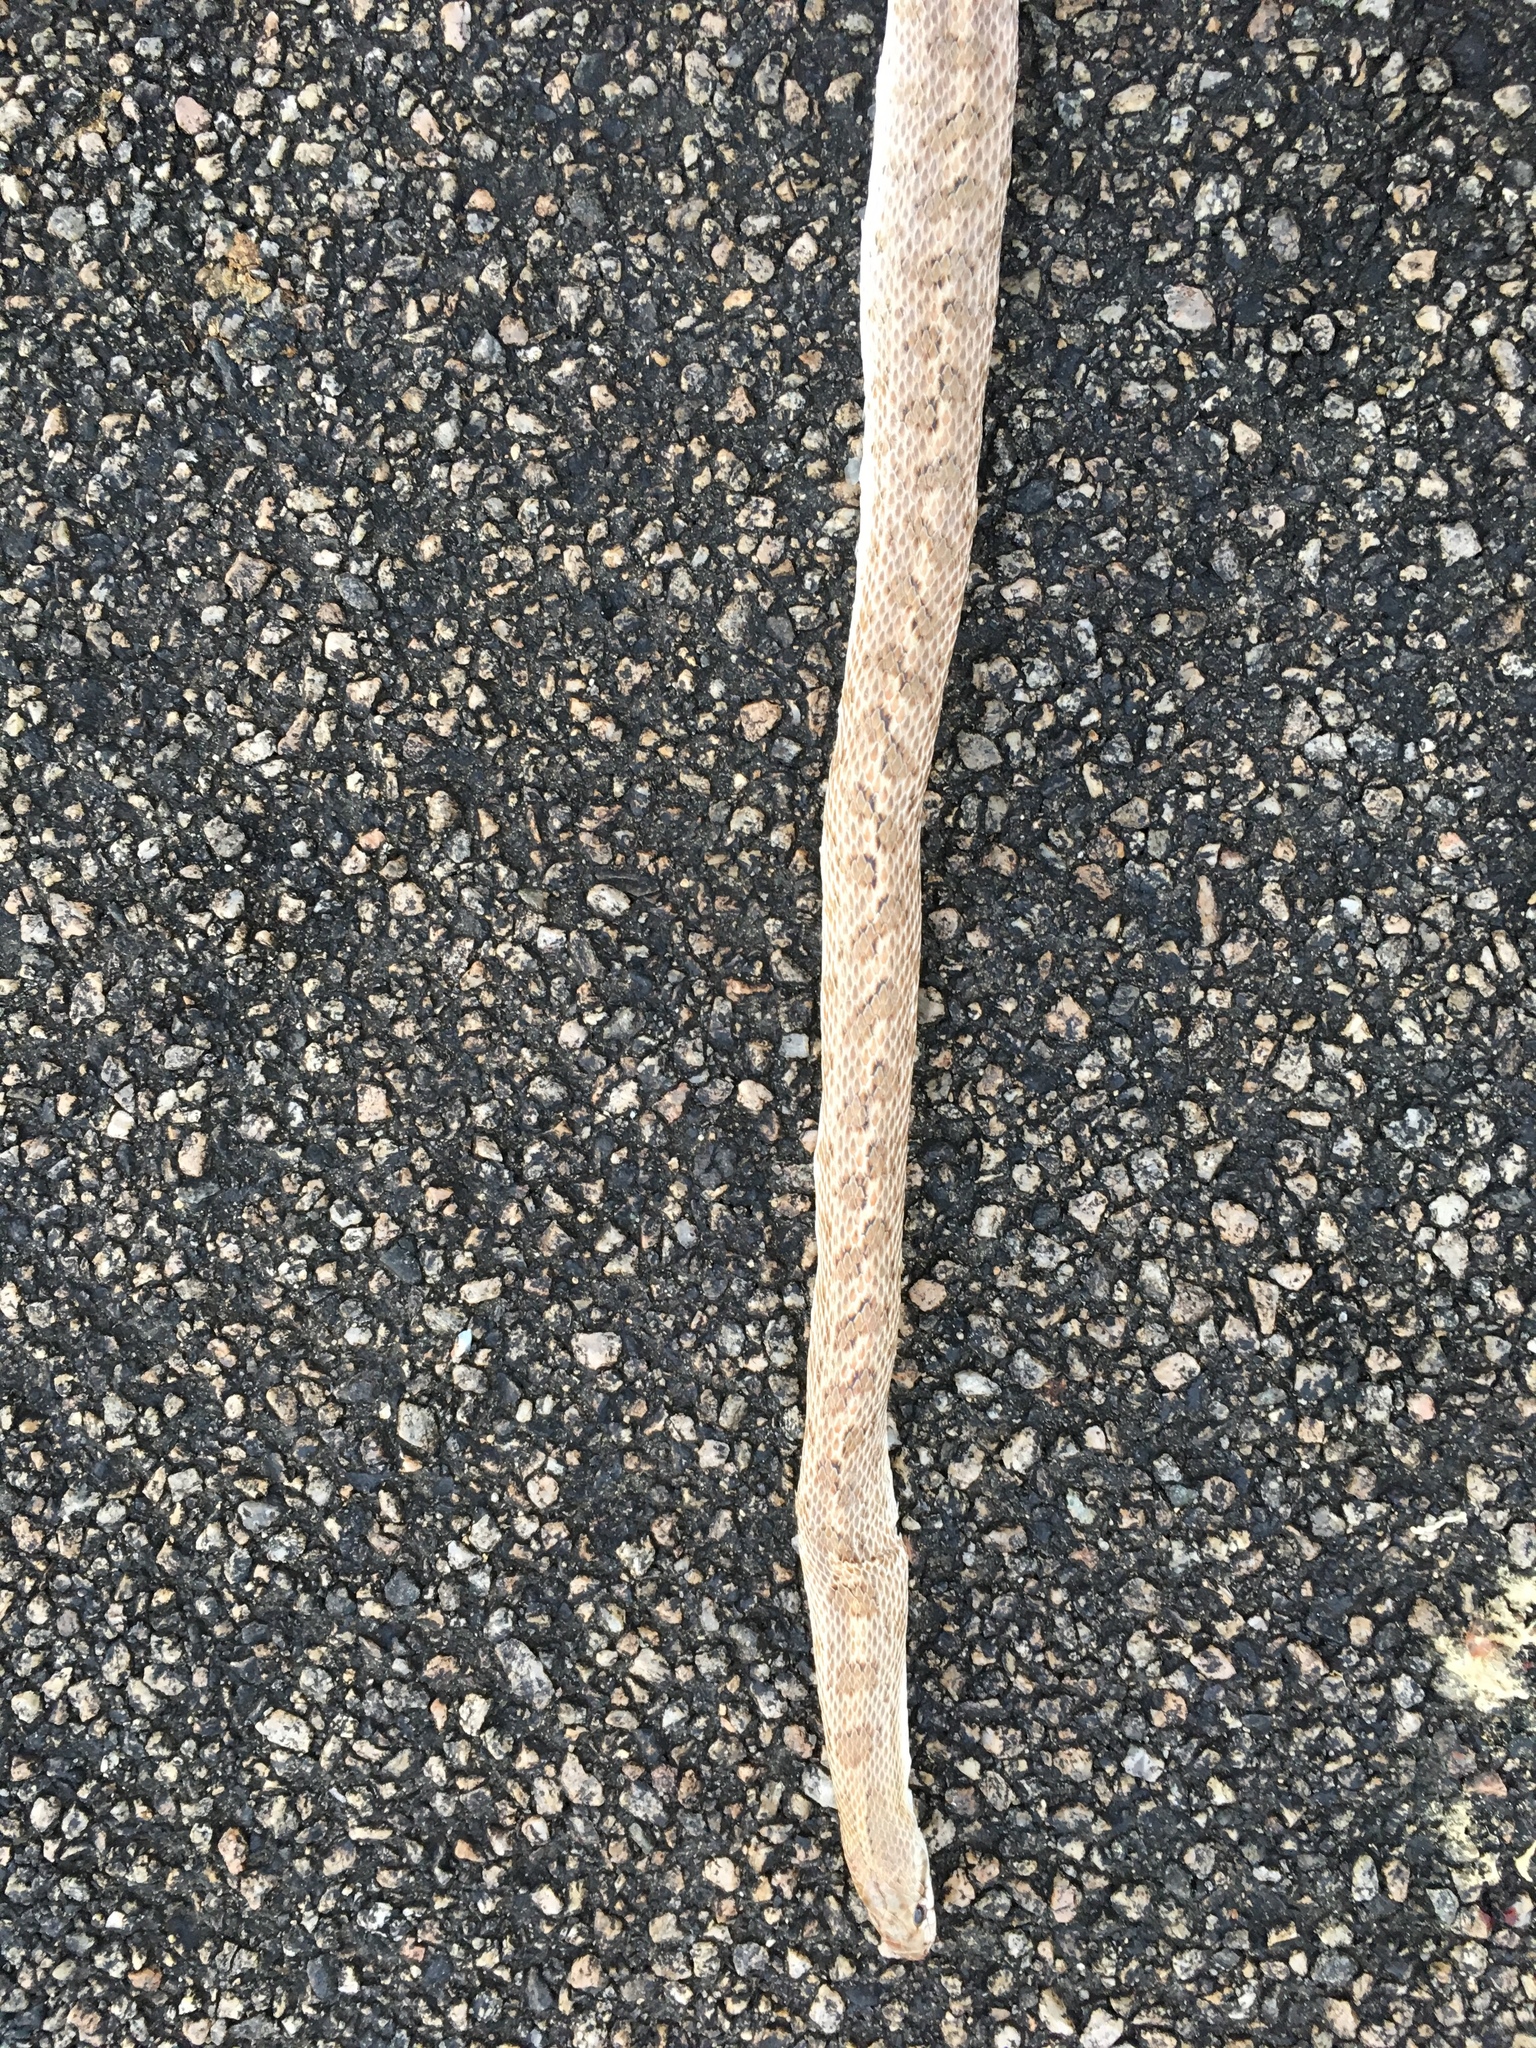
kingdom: Animalia
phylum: Chordata
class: Squamata
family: Colubridae
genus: Arizona
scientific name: Arizona elegans
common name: Glossy snake
